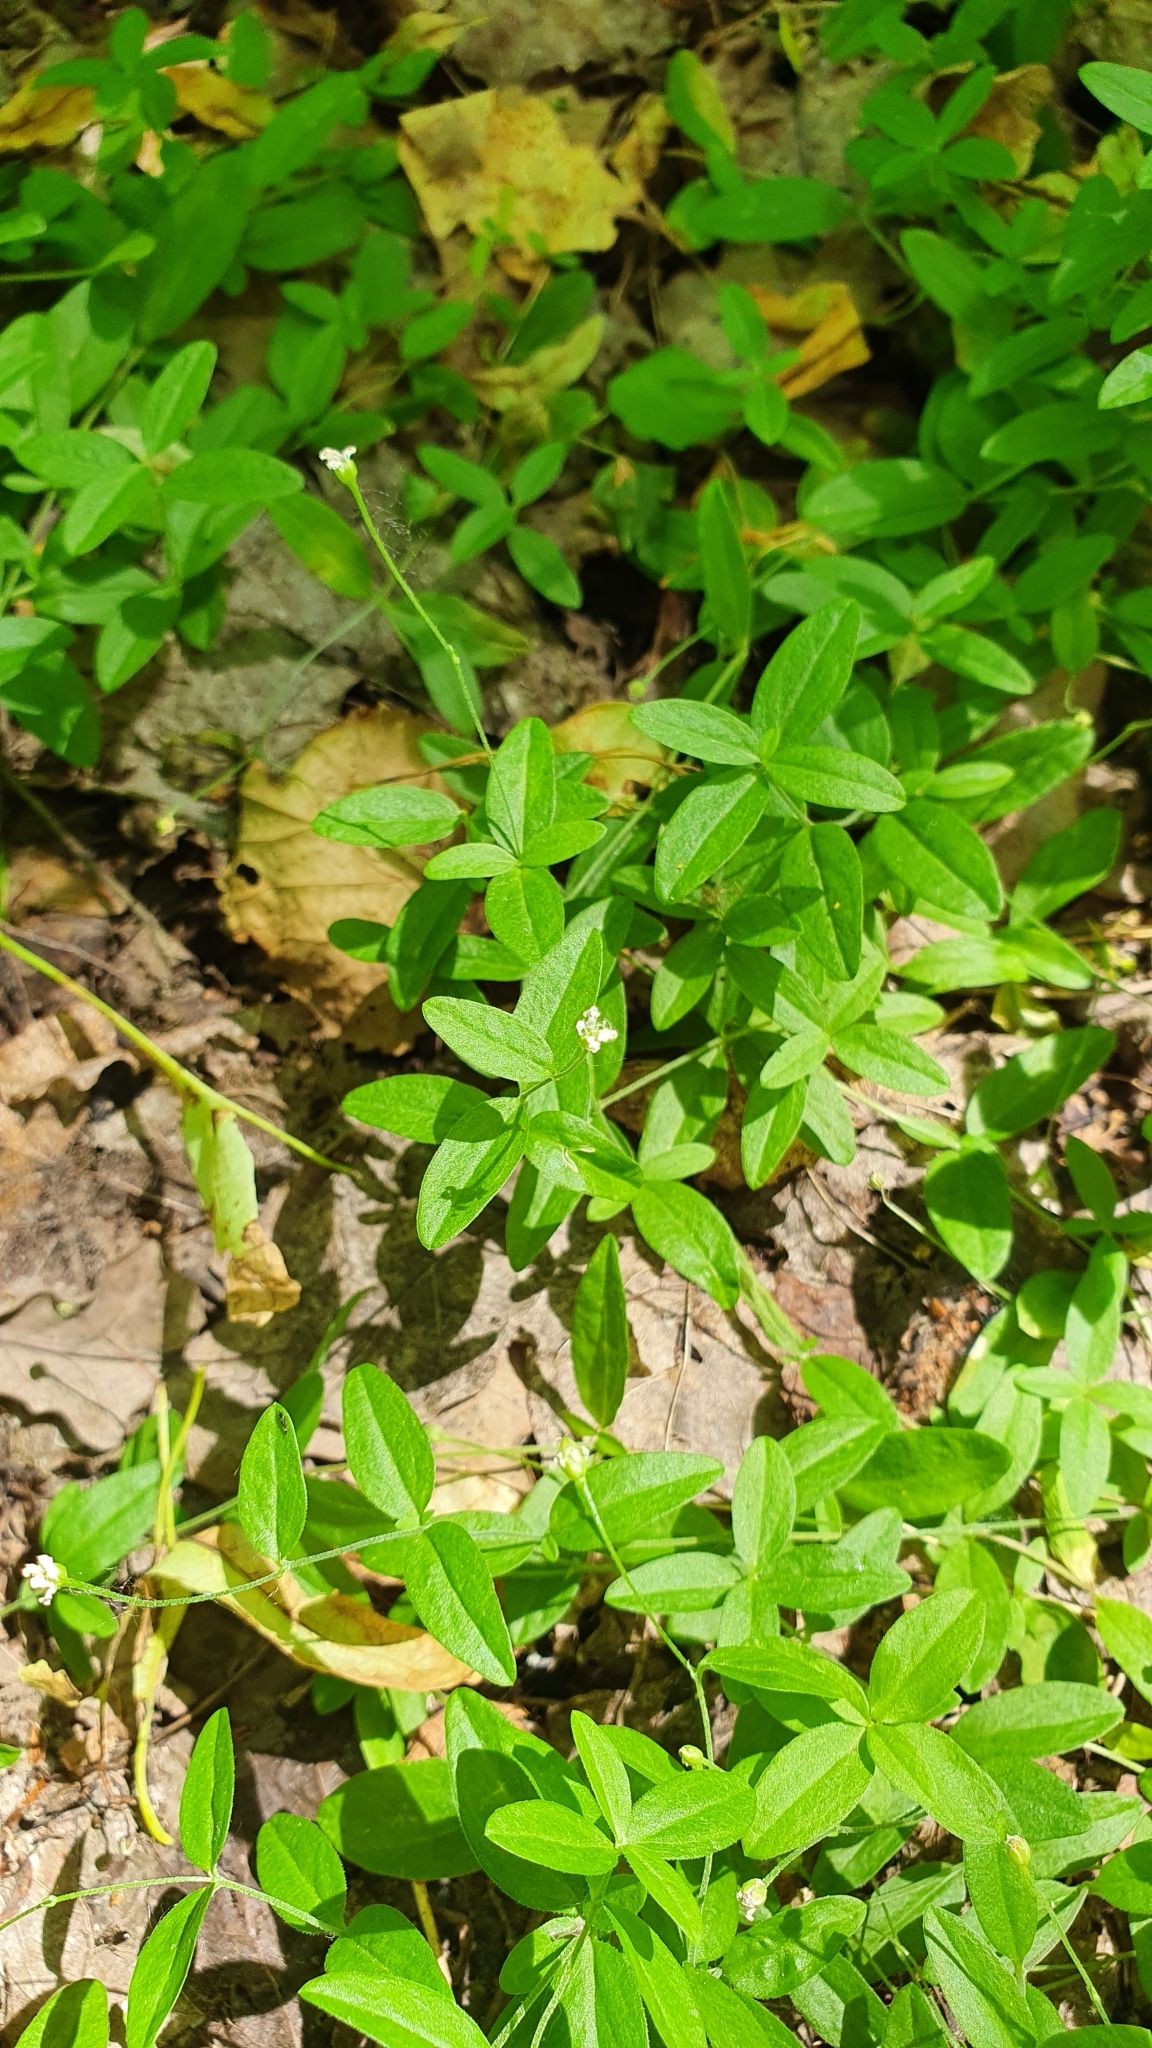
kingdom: Plantae
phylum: Tracheophyta
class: Magnoliopsida
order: Caryophyllales
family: Caryophyllaceae
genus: Moehringia
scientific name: Moehringia lateriflora
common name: Blunt-leaved sandwort
